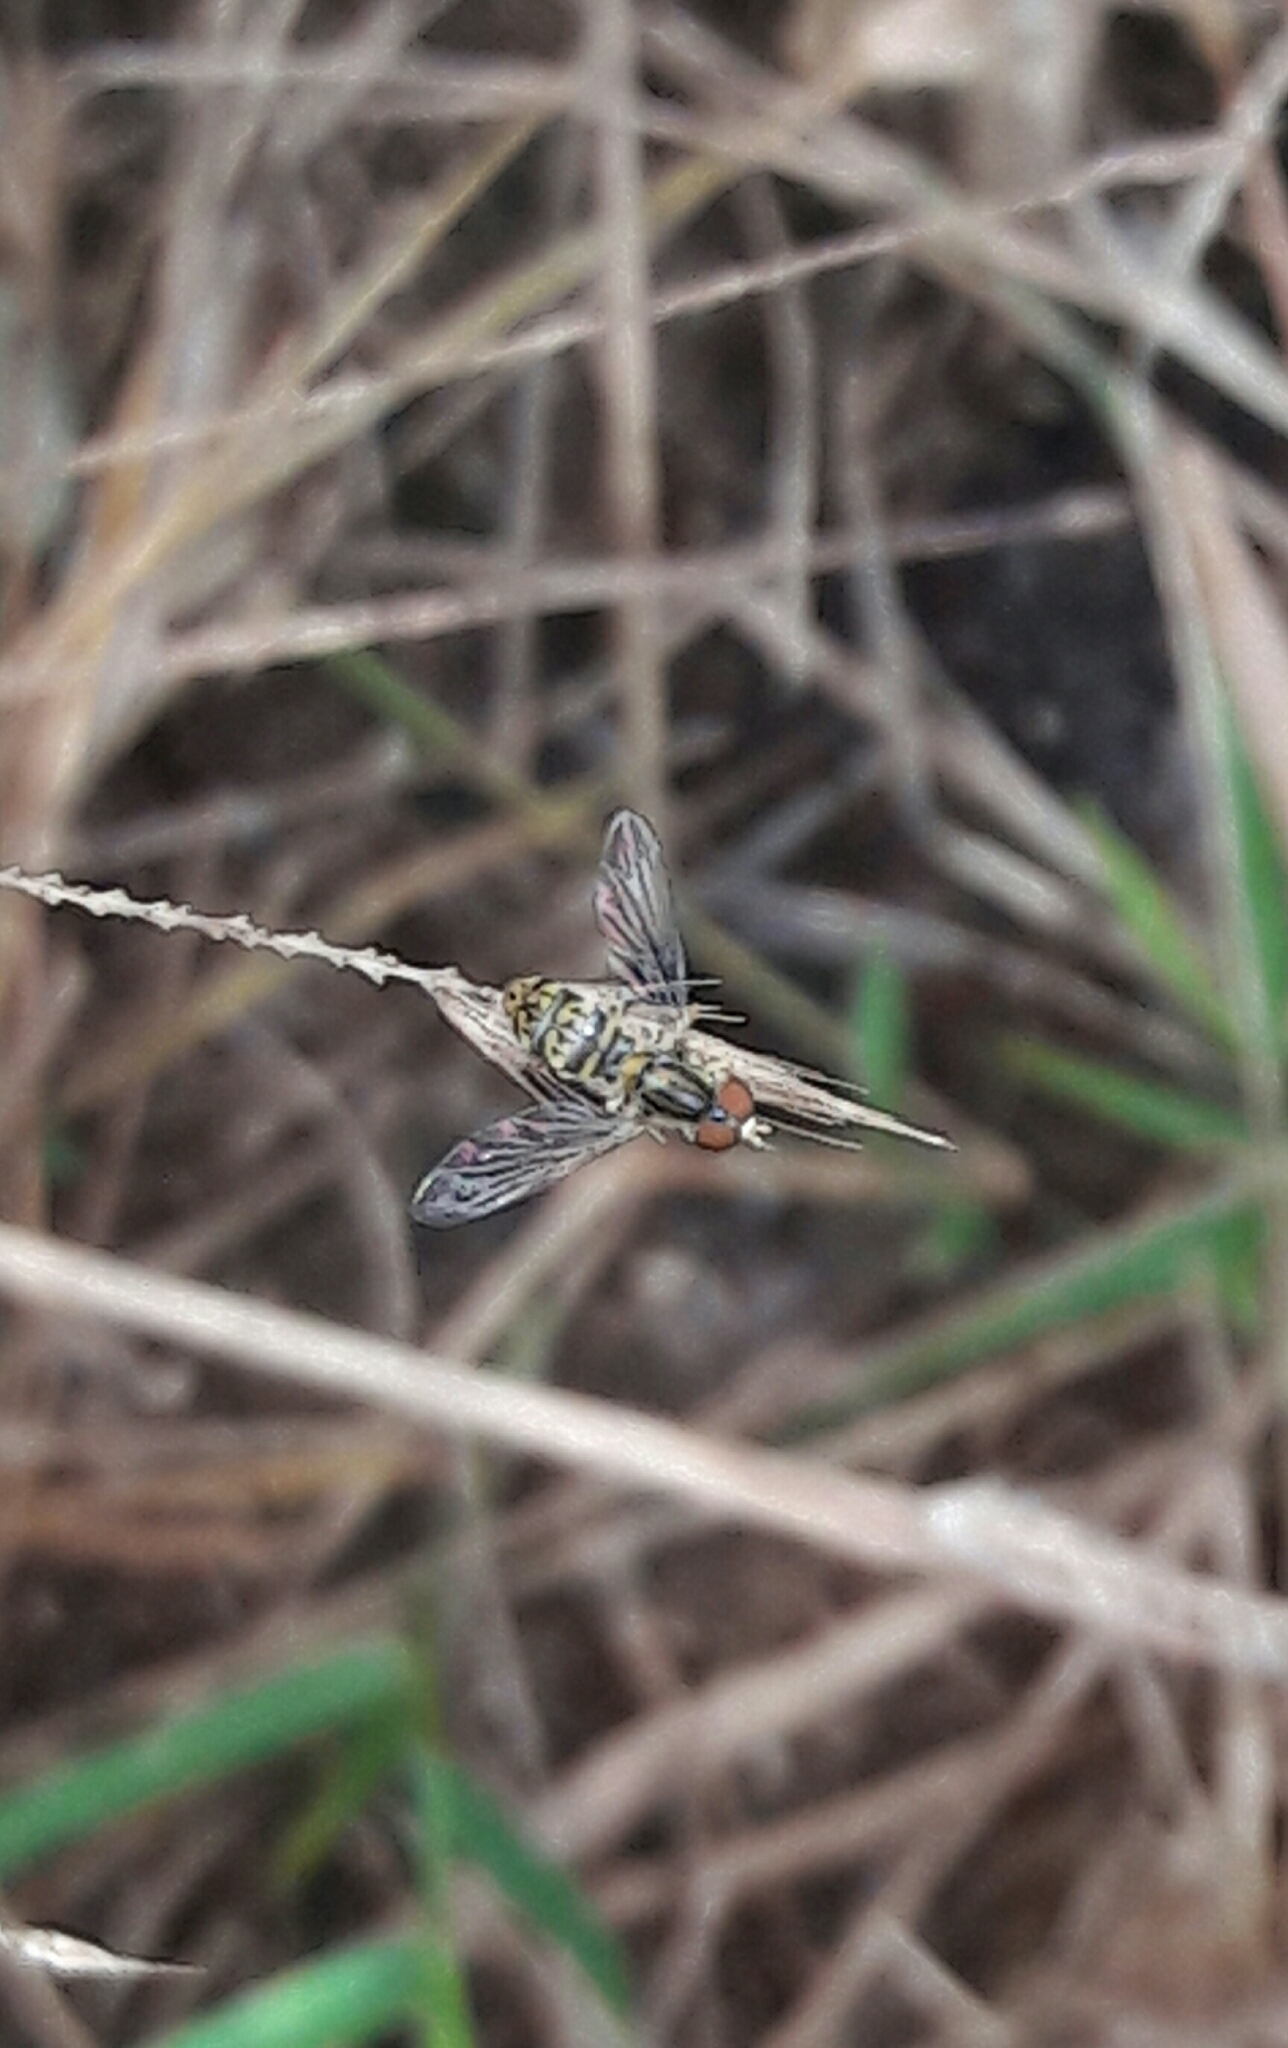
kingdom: Animalia
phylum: Arthropoda
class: Insecta
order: Diptera
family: Syrphidae
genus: Toxomerus
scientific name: Toxomerus
